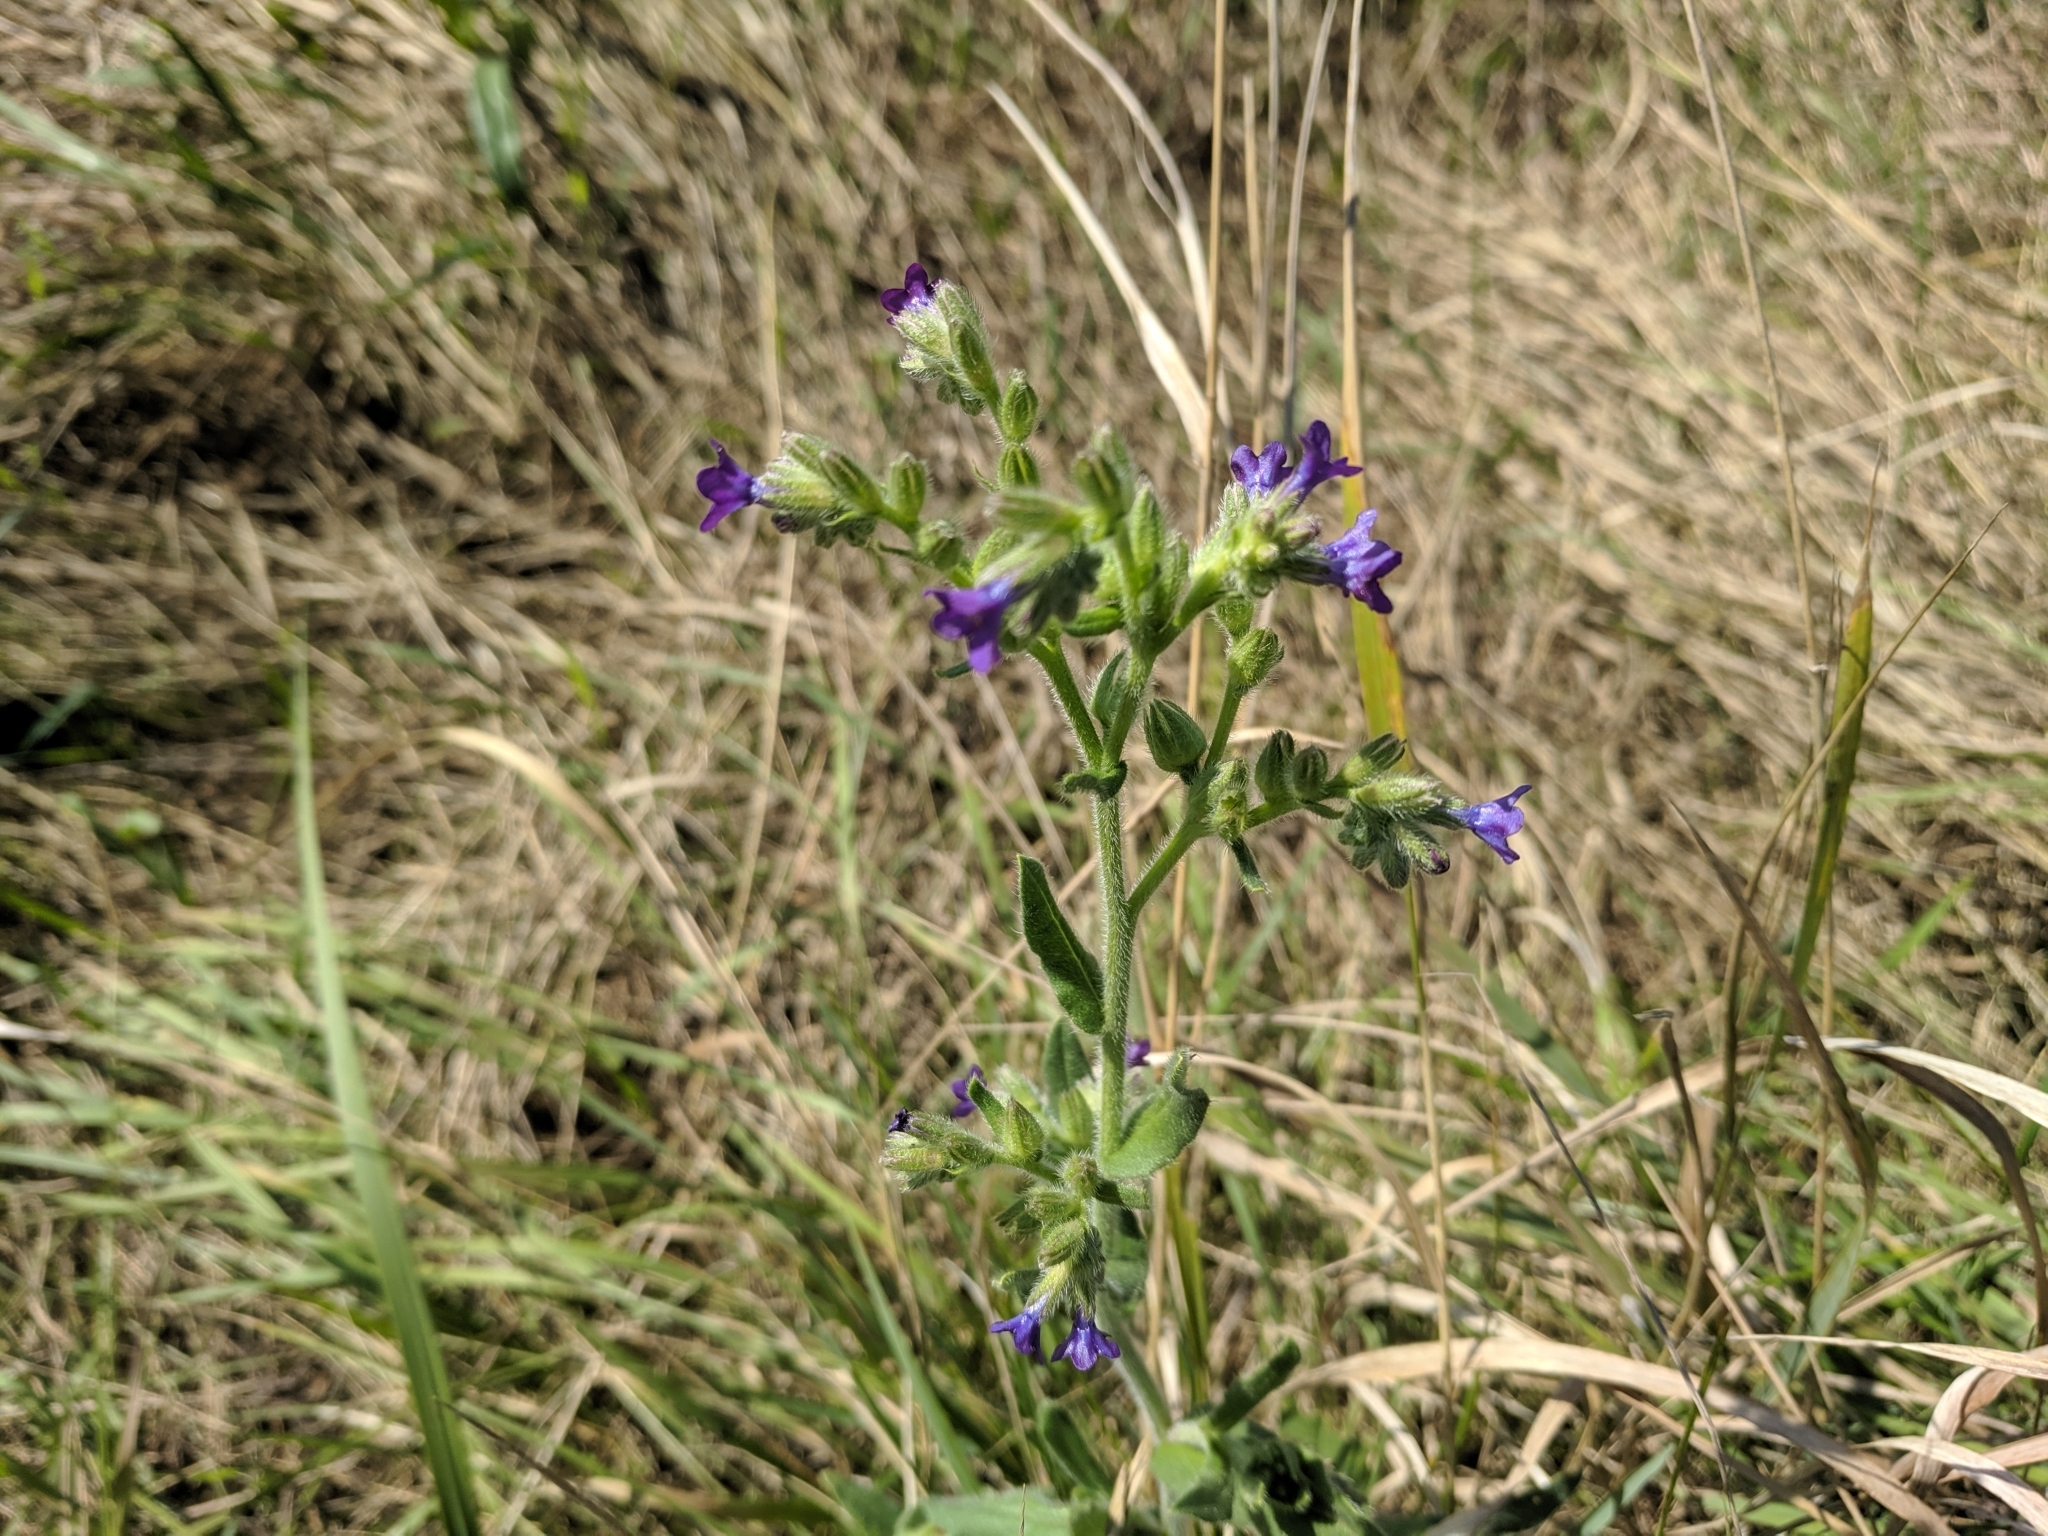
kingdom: Plantae
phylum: Tracheophyta
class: Magnoliopsida
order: Boraginales
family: Boraginaceae
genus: Anchusa
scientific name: Anchusa officinalis
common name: Alkanet
